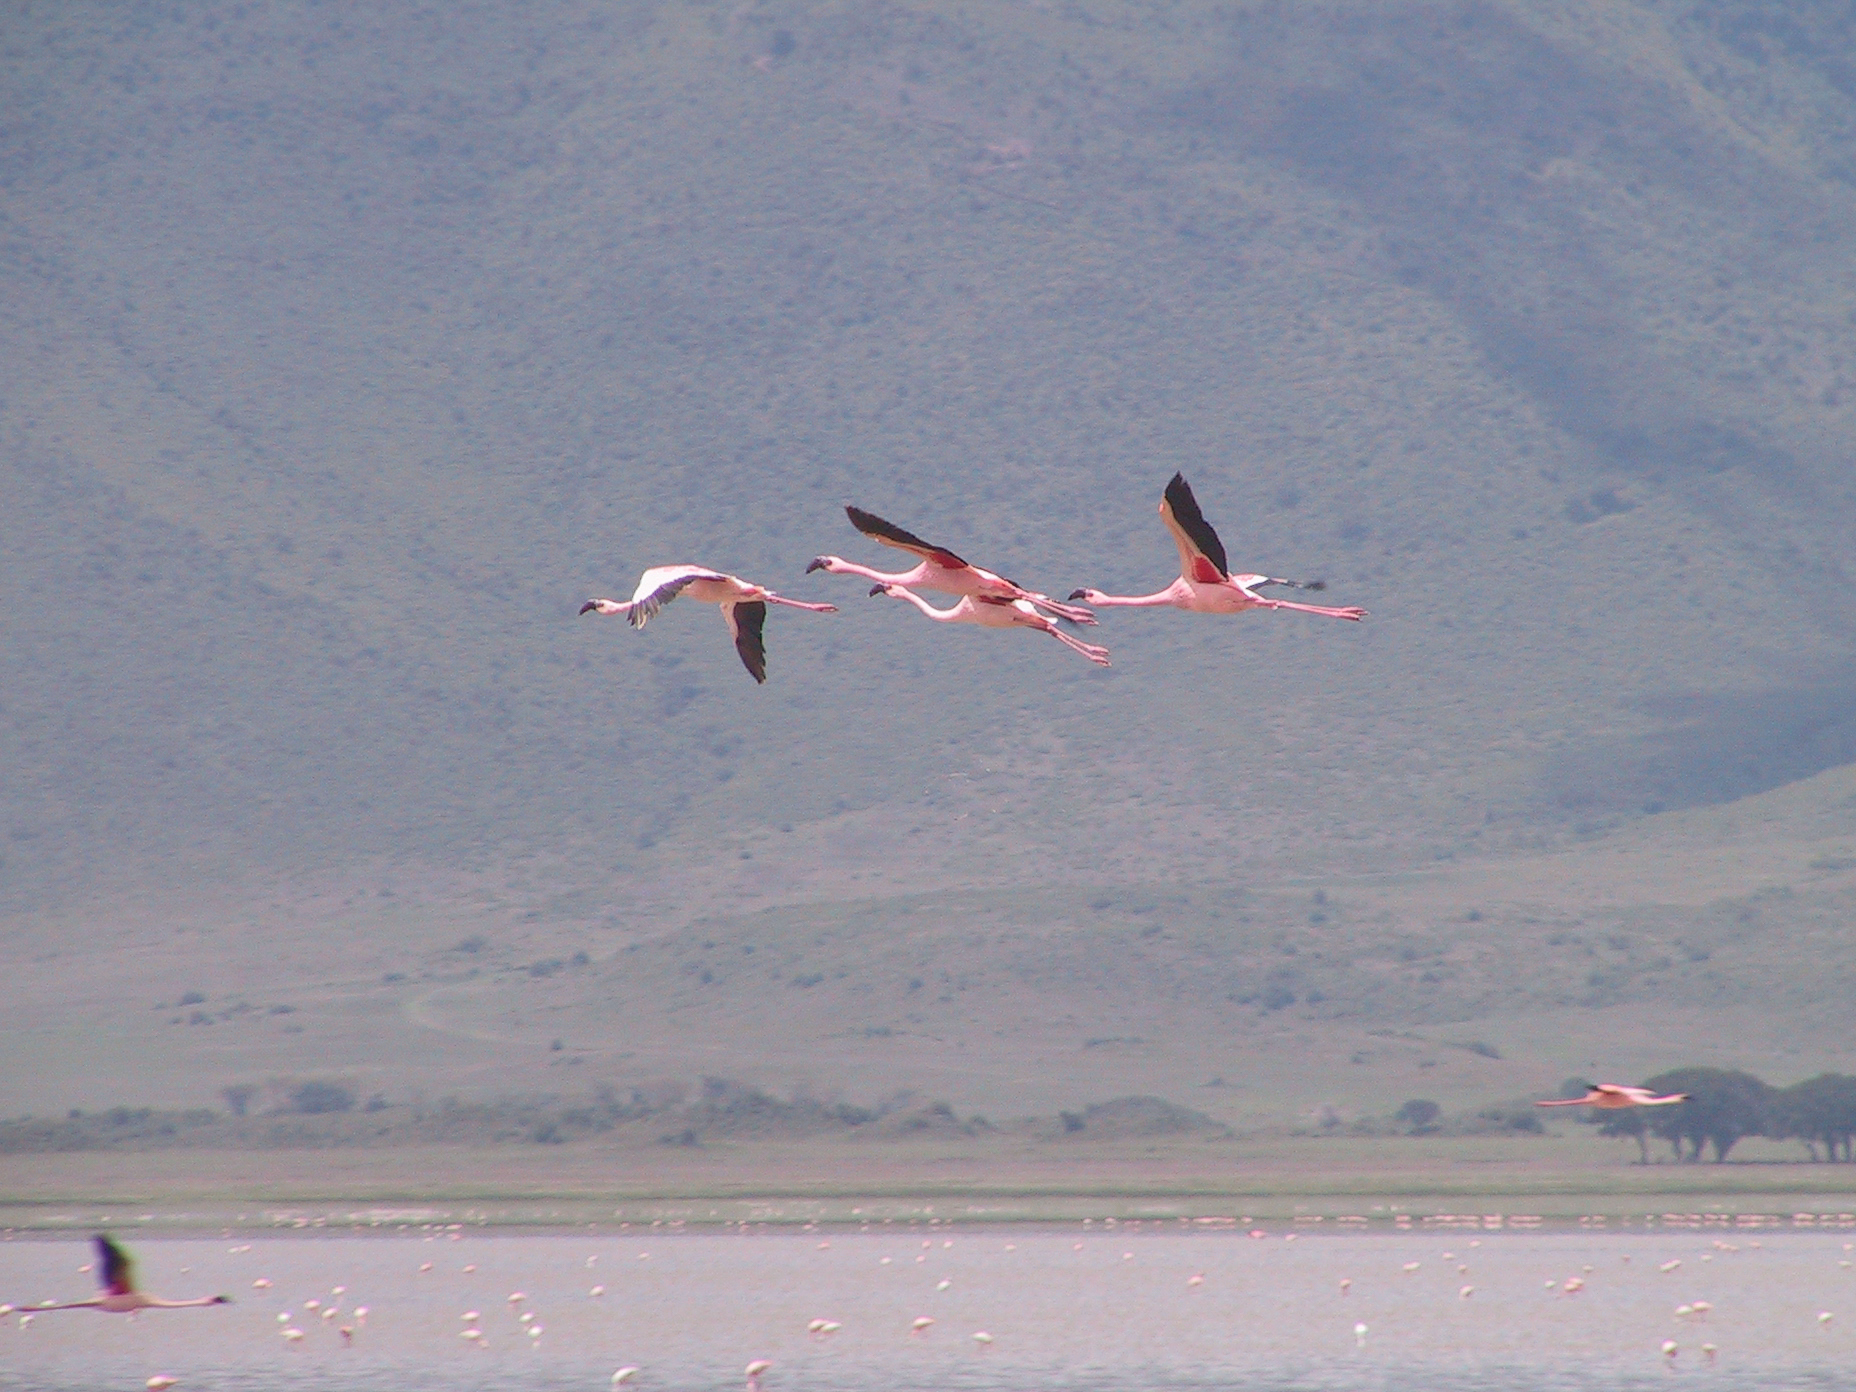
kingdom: Animalia
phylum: Chordata
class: Aves
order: Phoenicopteriformes
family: Phoenicopteridae
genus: Phoeniconaias
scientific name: Phoeniconaias minor
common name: Lesser flamingo
